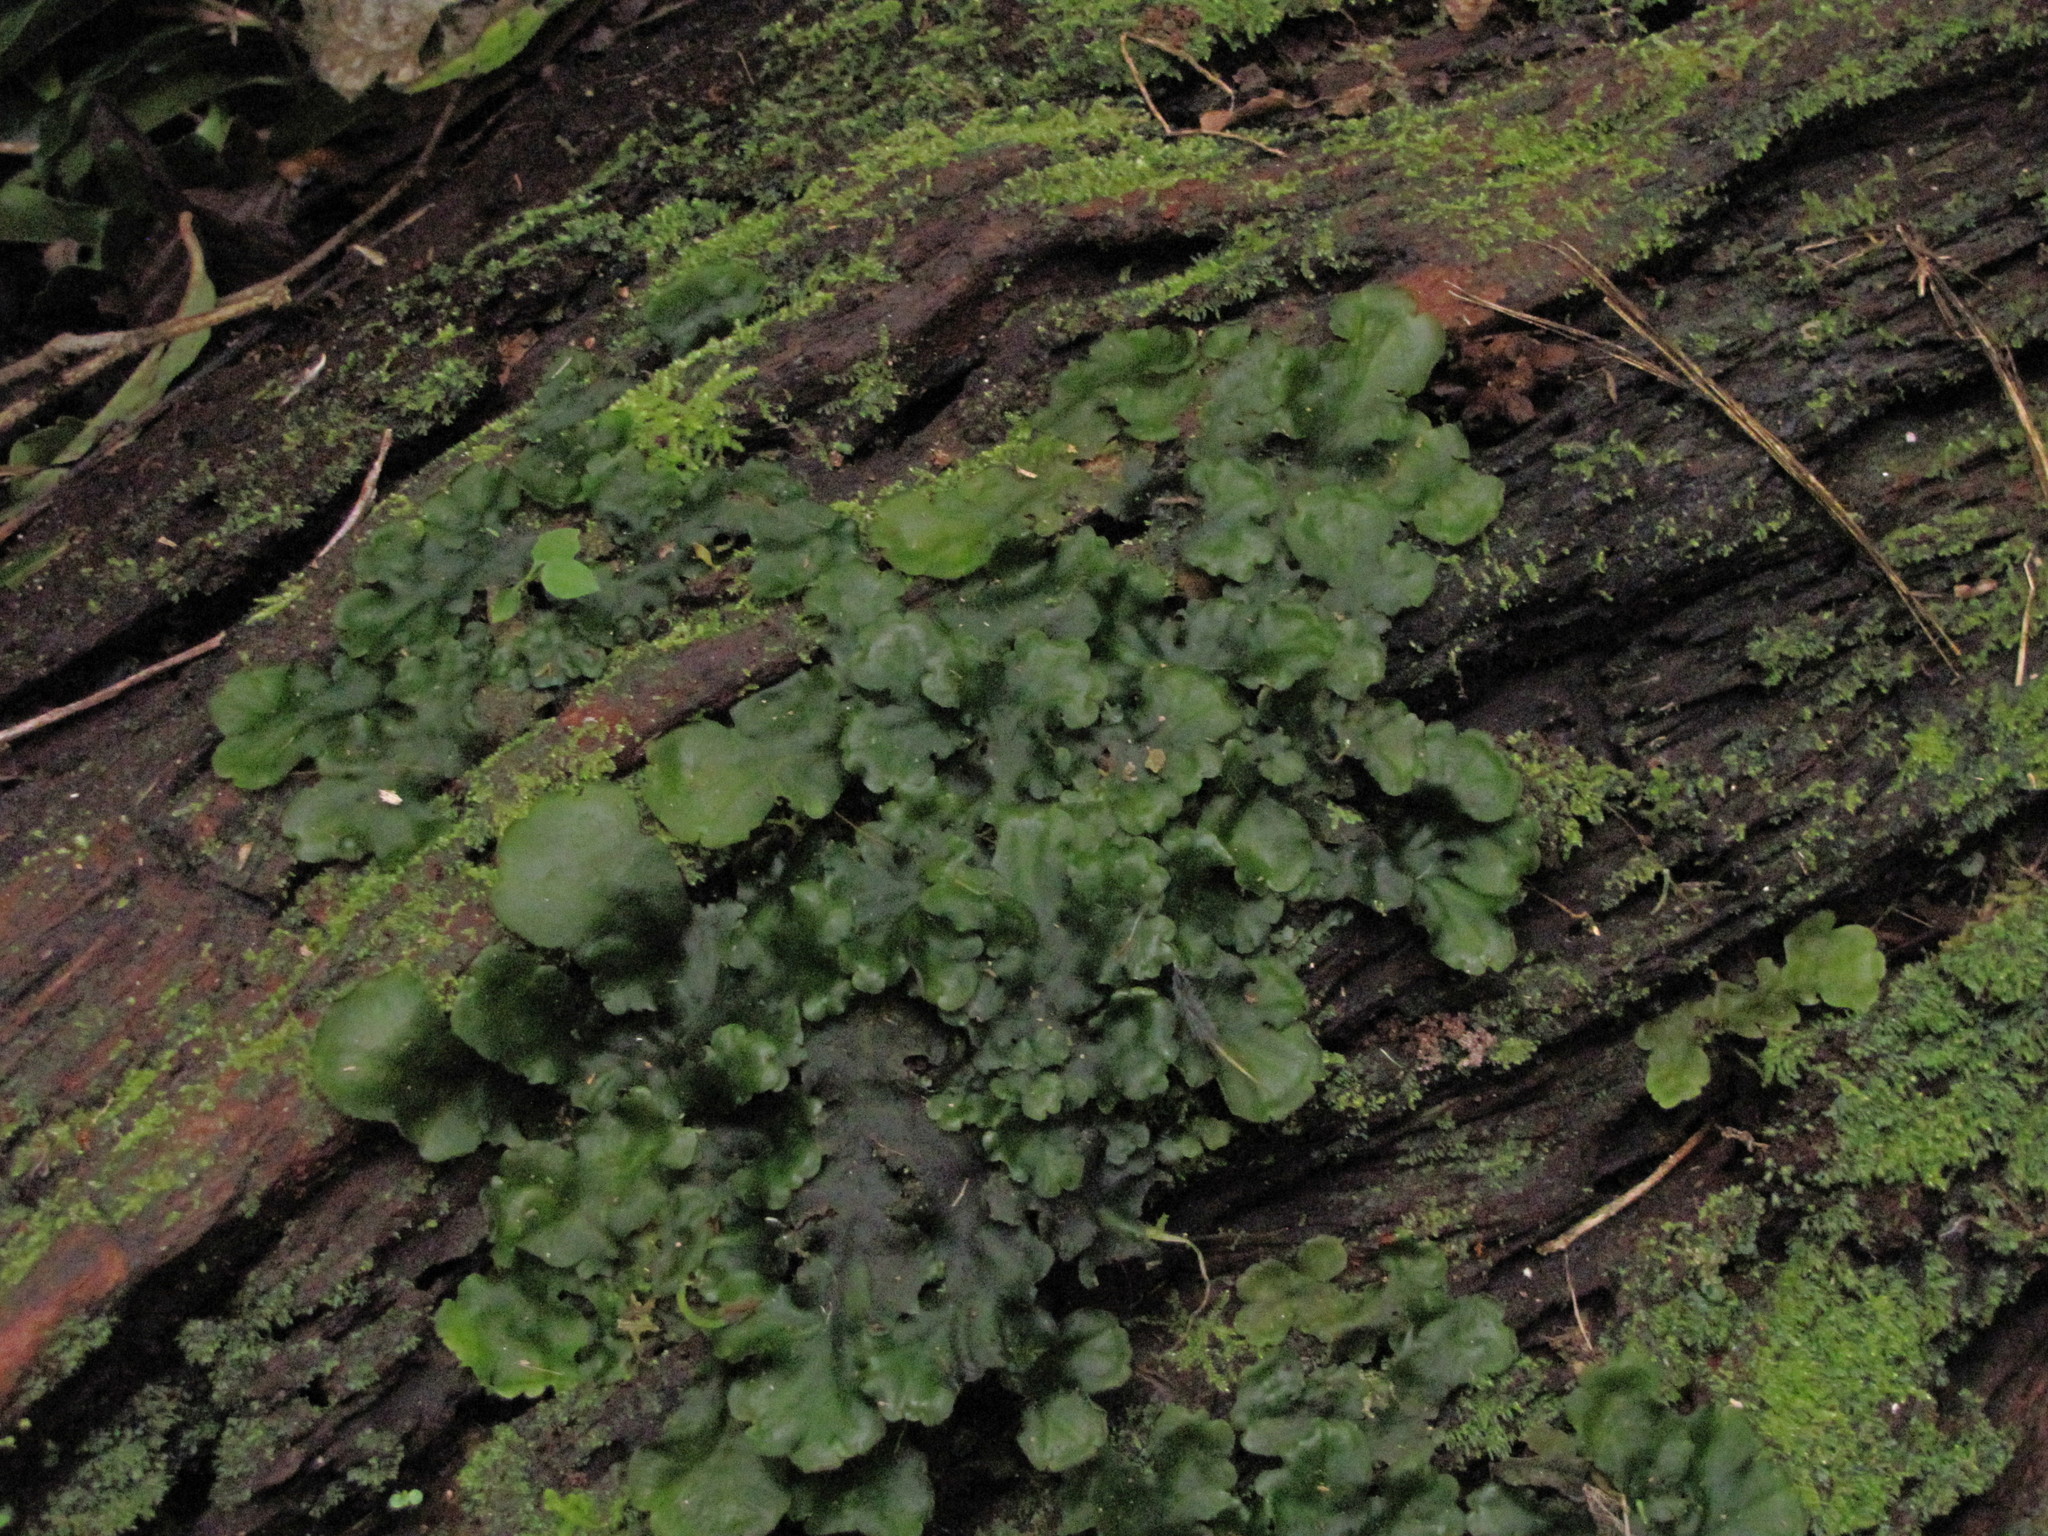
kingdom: Plantae
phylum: Marchantiophyta
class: Marchantiopsida
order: Marchantiales
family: Monocleaceae
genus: Monoclea
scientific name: Monoclea gottschei
